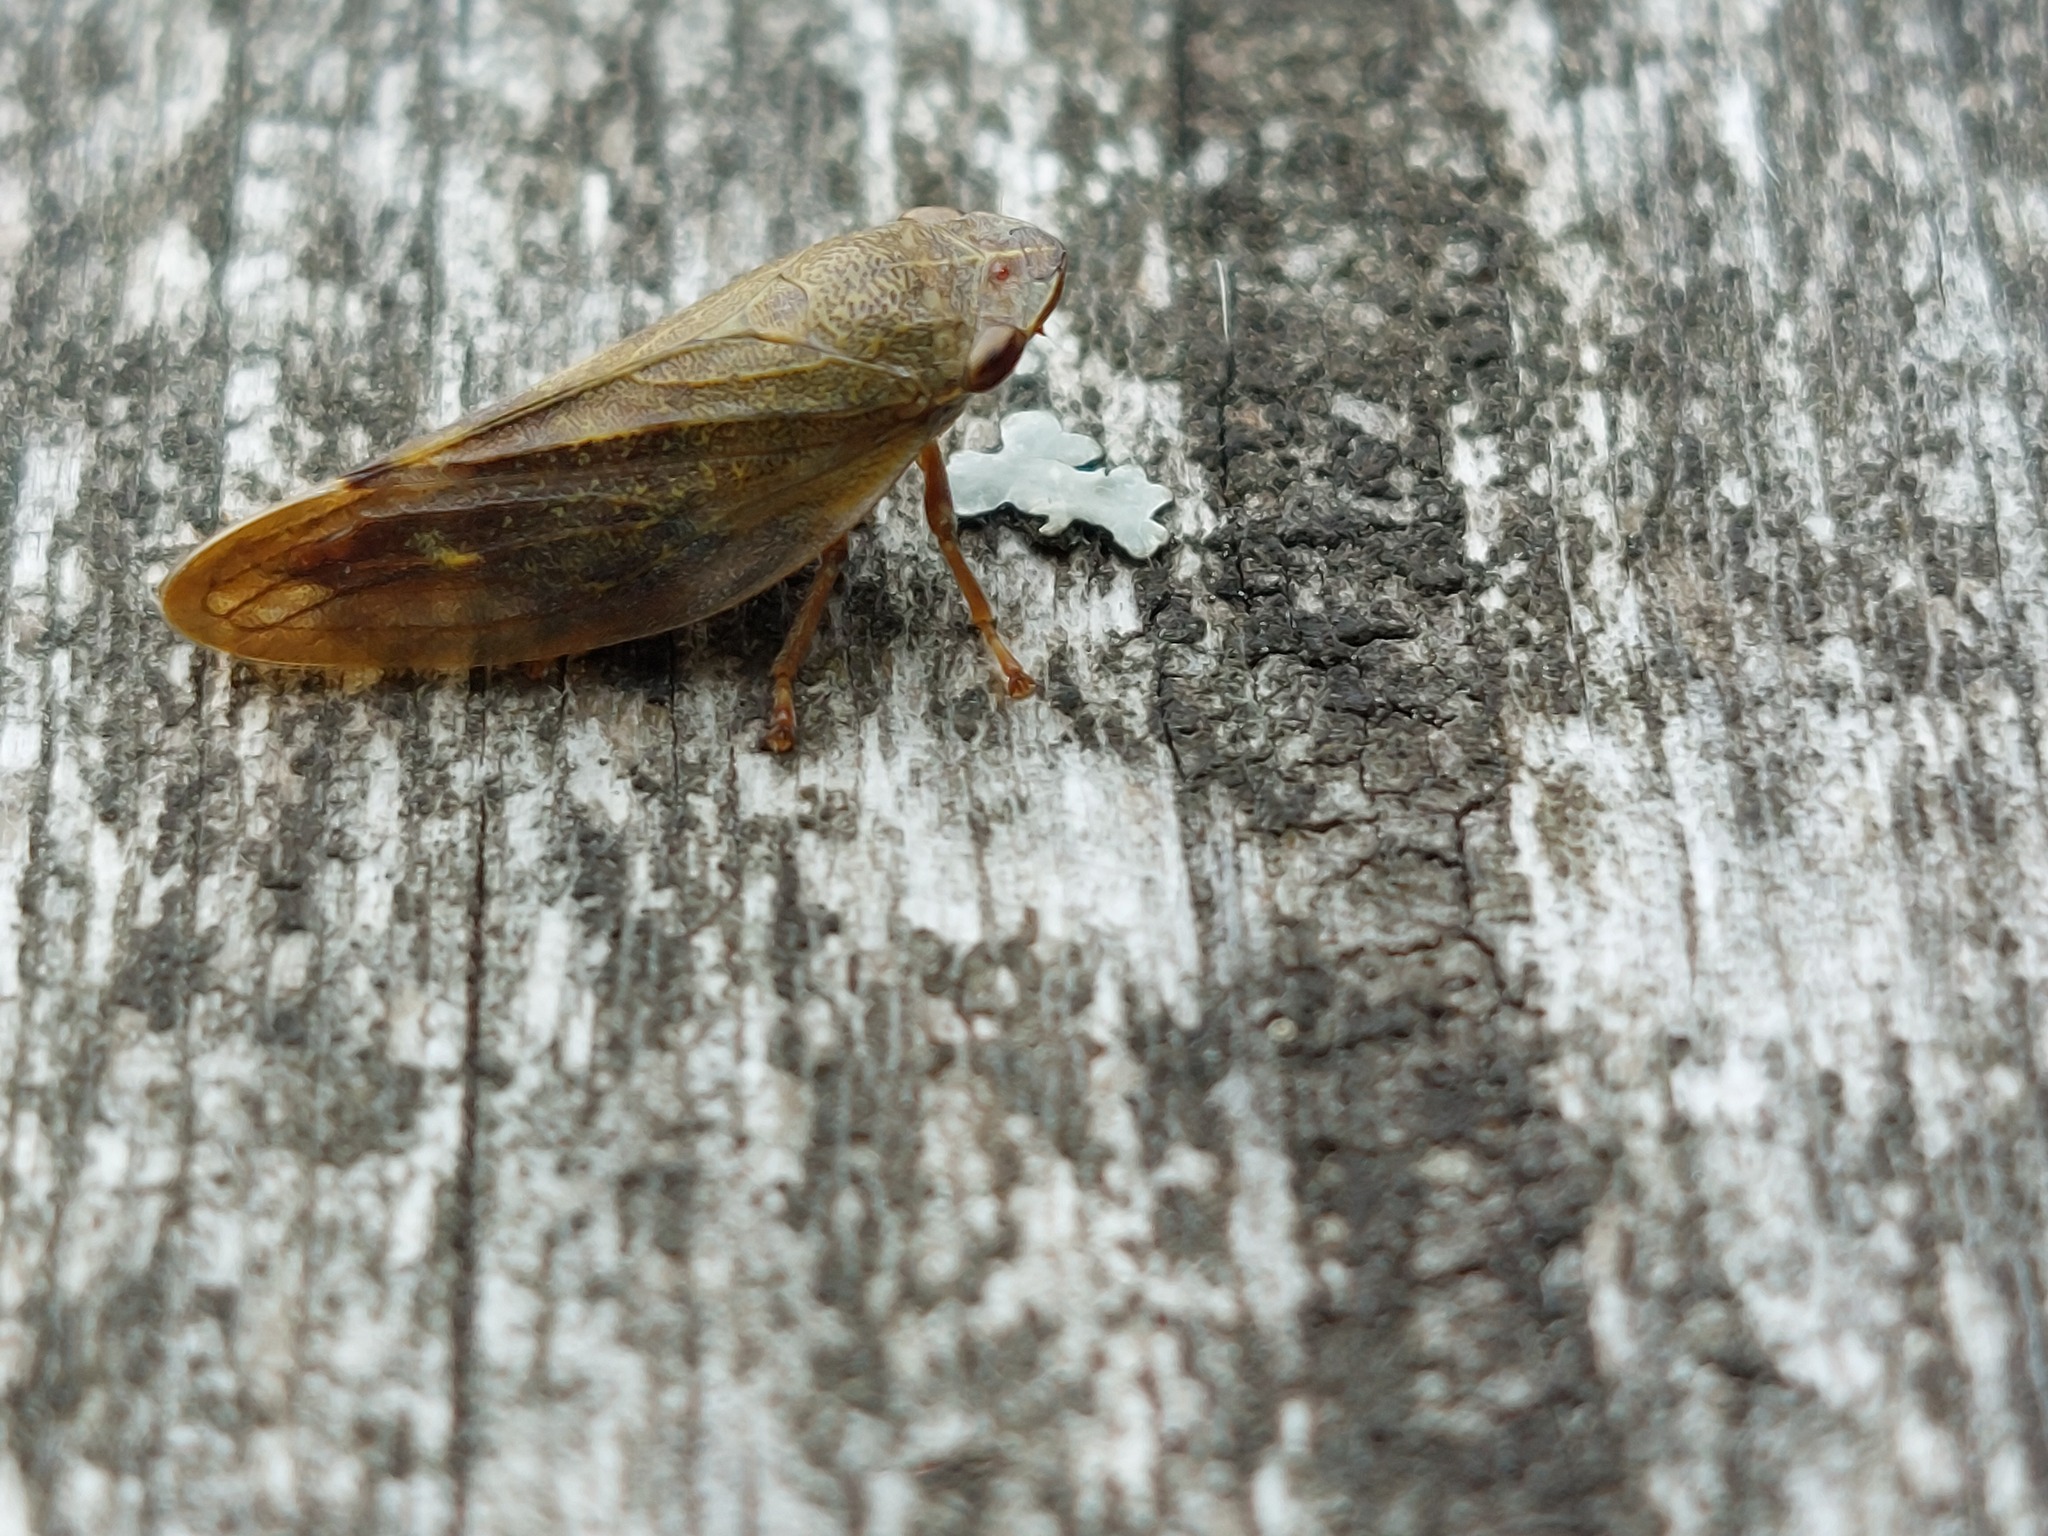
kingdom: Animalia
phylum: Arthropoda
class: Insecta
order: Hemiptera
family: Aphrophoridae
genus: Omalophora
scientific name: Omalophora pectoralis
